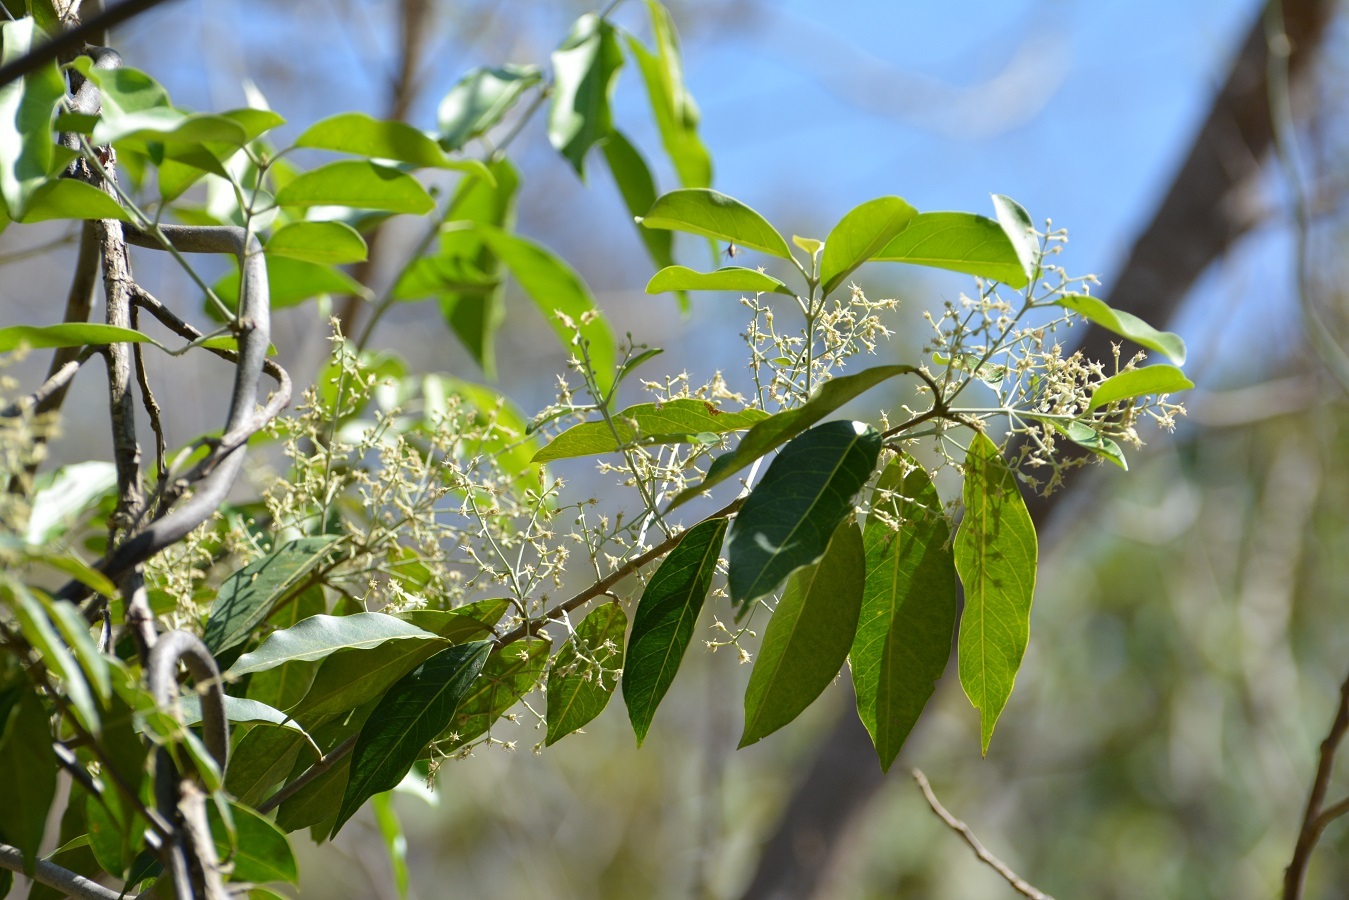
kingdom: Plantae
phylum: Tracheophyta
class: Magnoliopsida
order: Malpighiales
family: Malpighiaceae
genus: Psychopterys
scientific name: Psychopterys multiflora
